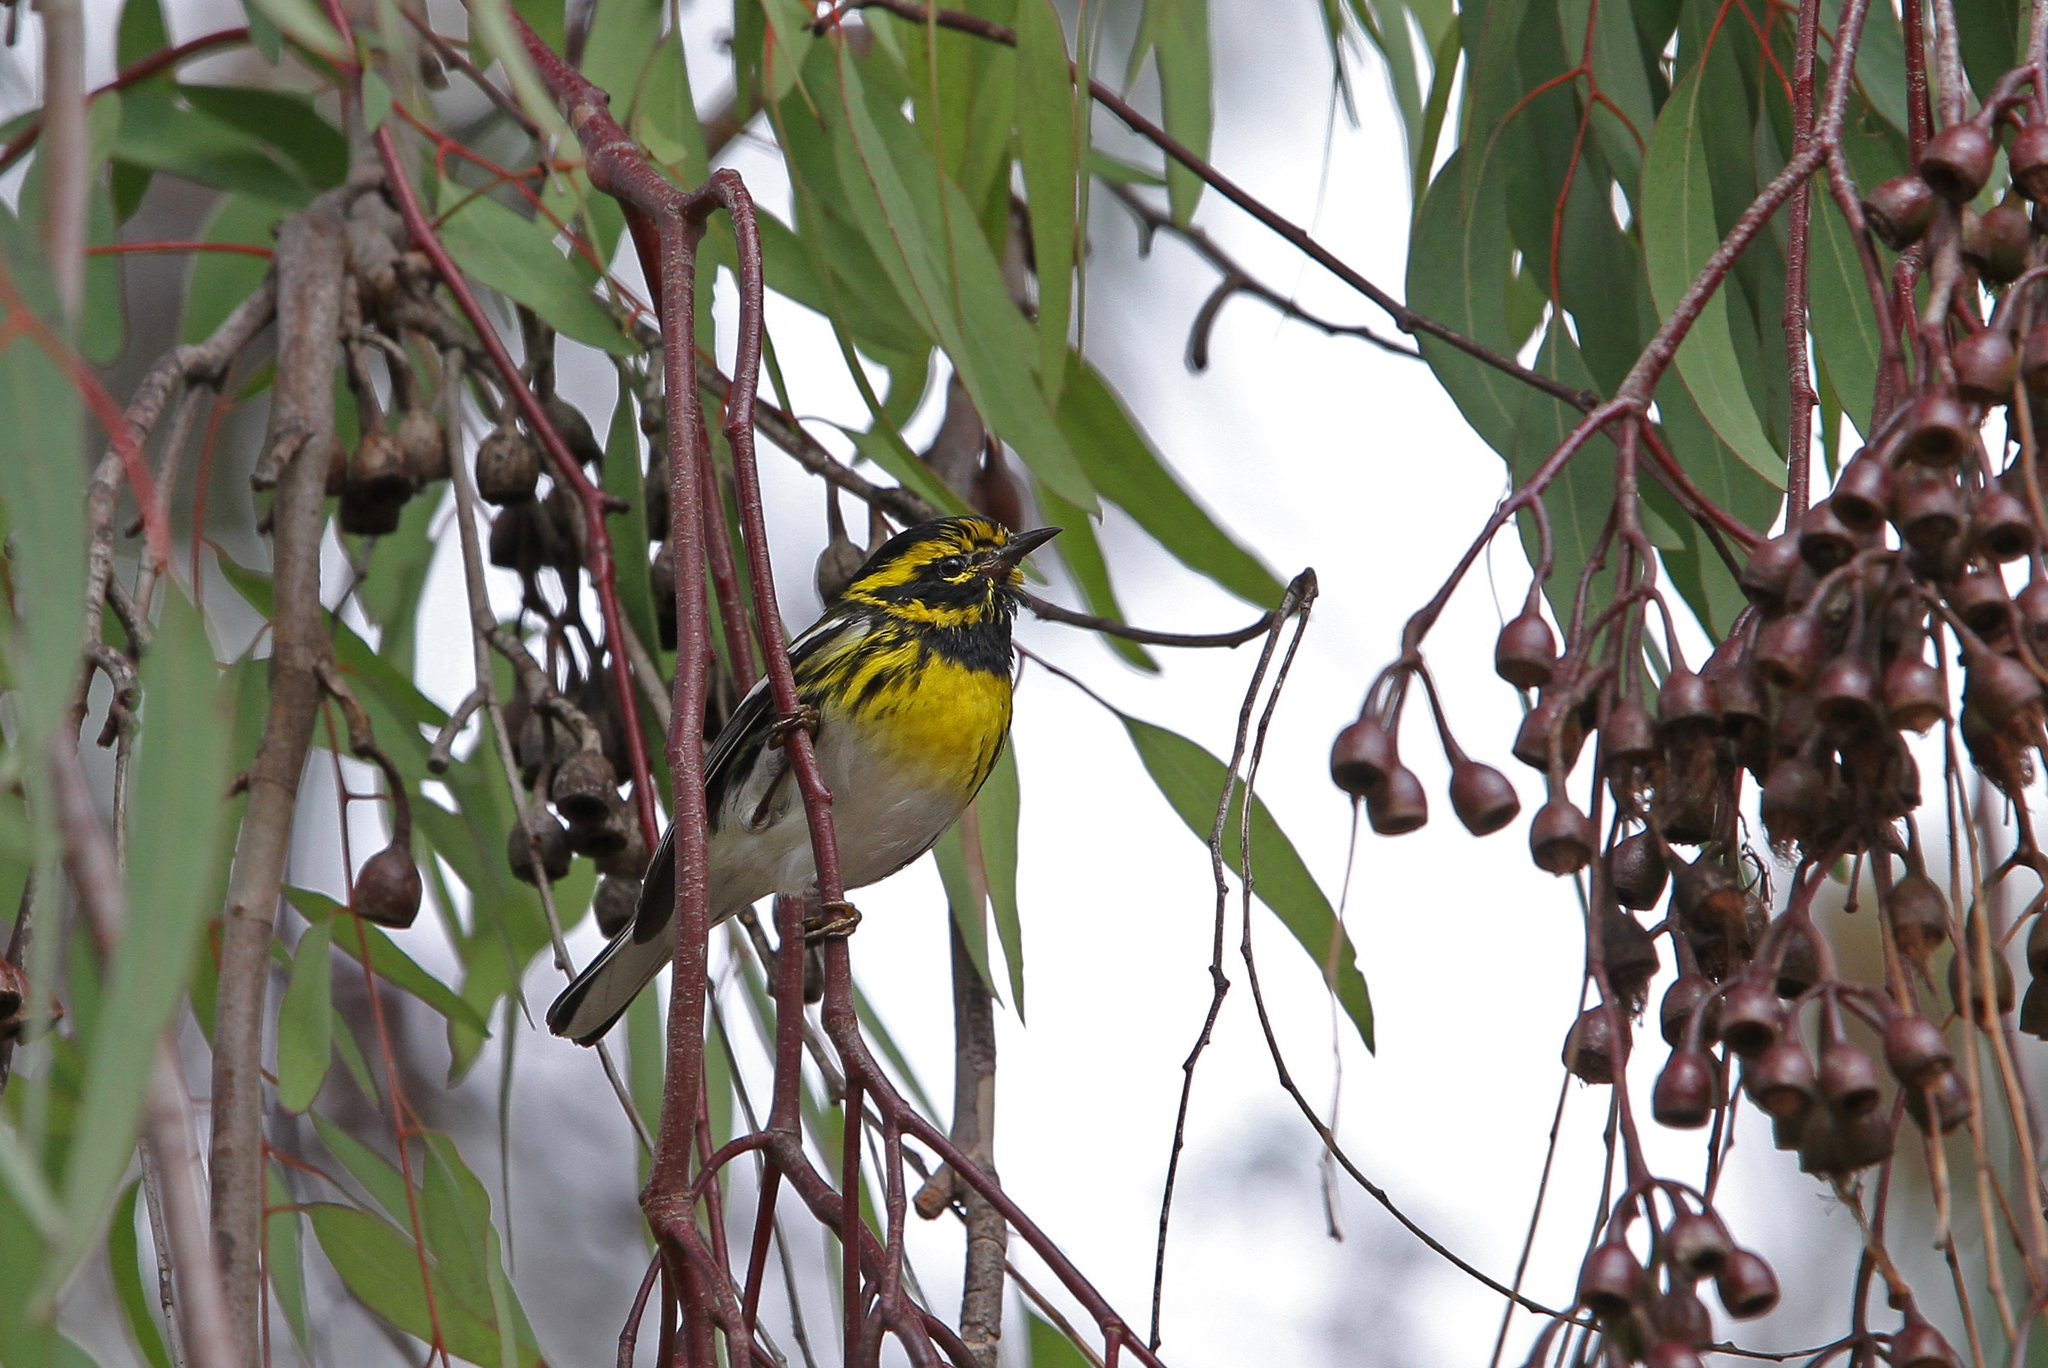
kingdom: Animalia
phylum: Chordata
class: Aves
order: Passeriformes
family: Parulidae
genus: Setophaga
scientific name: Setophaga townsendi
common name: Townsend's warbler
